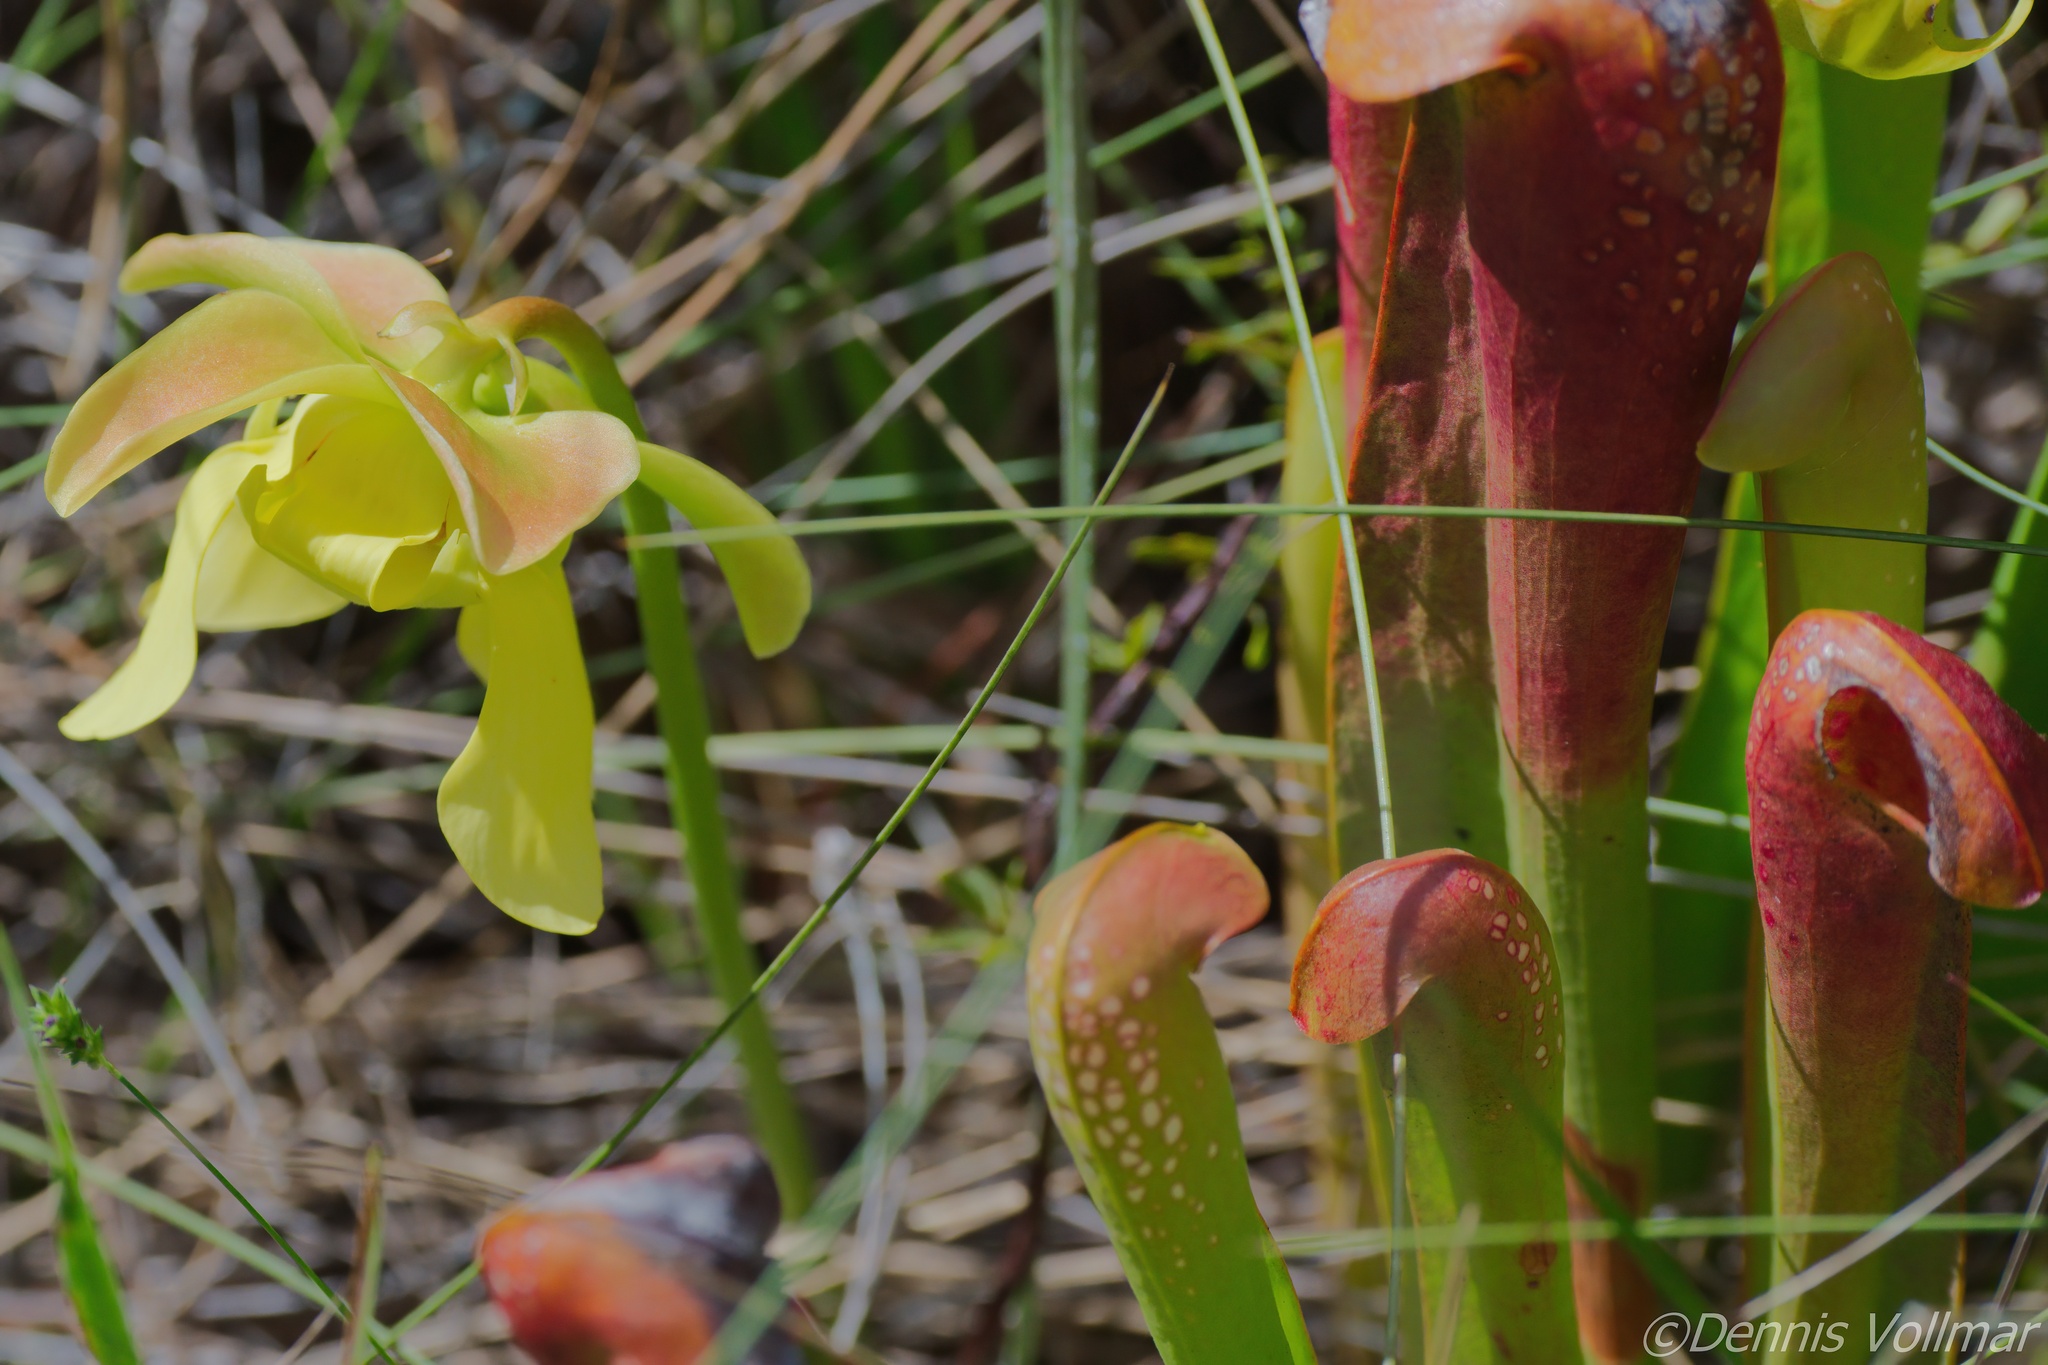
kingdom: Plantae
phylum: Tracheophyta
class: Magnoliopsida
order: Ericales
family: Sarraceniaceae
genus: Sarracenia
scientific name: Sarracenia minor
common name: Rainhat-trumpet
